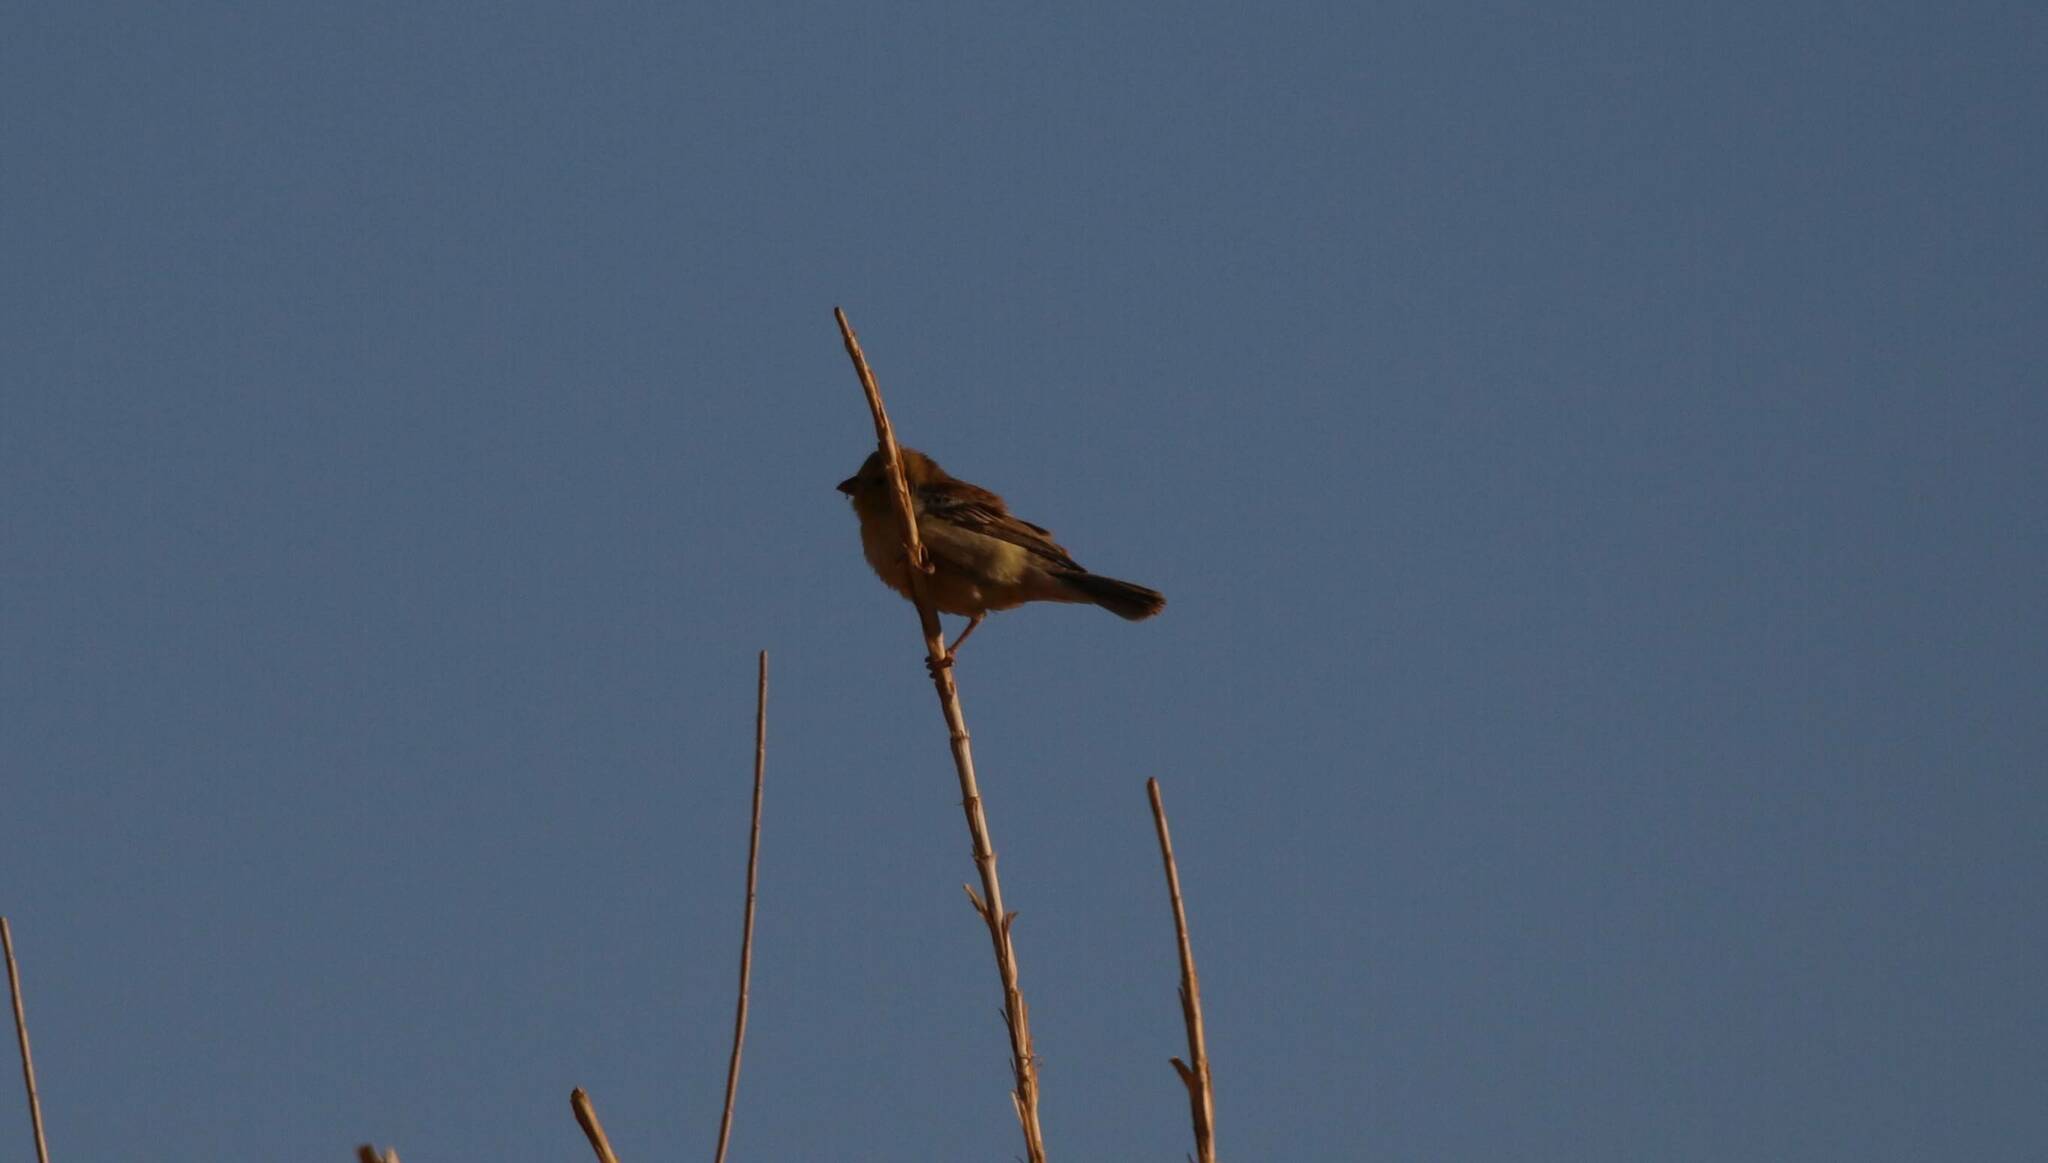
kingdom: Animalia
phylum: Chordata
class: Aves
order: Passeriformes
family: Passeridae
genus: Passer
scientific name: Passer luteus
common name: Sudan golden sparrow
